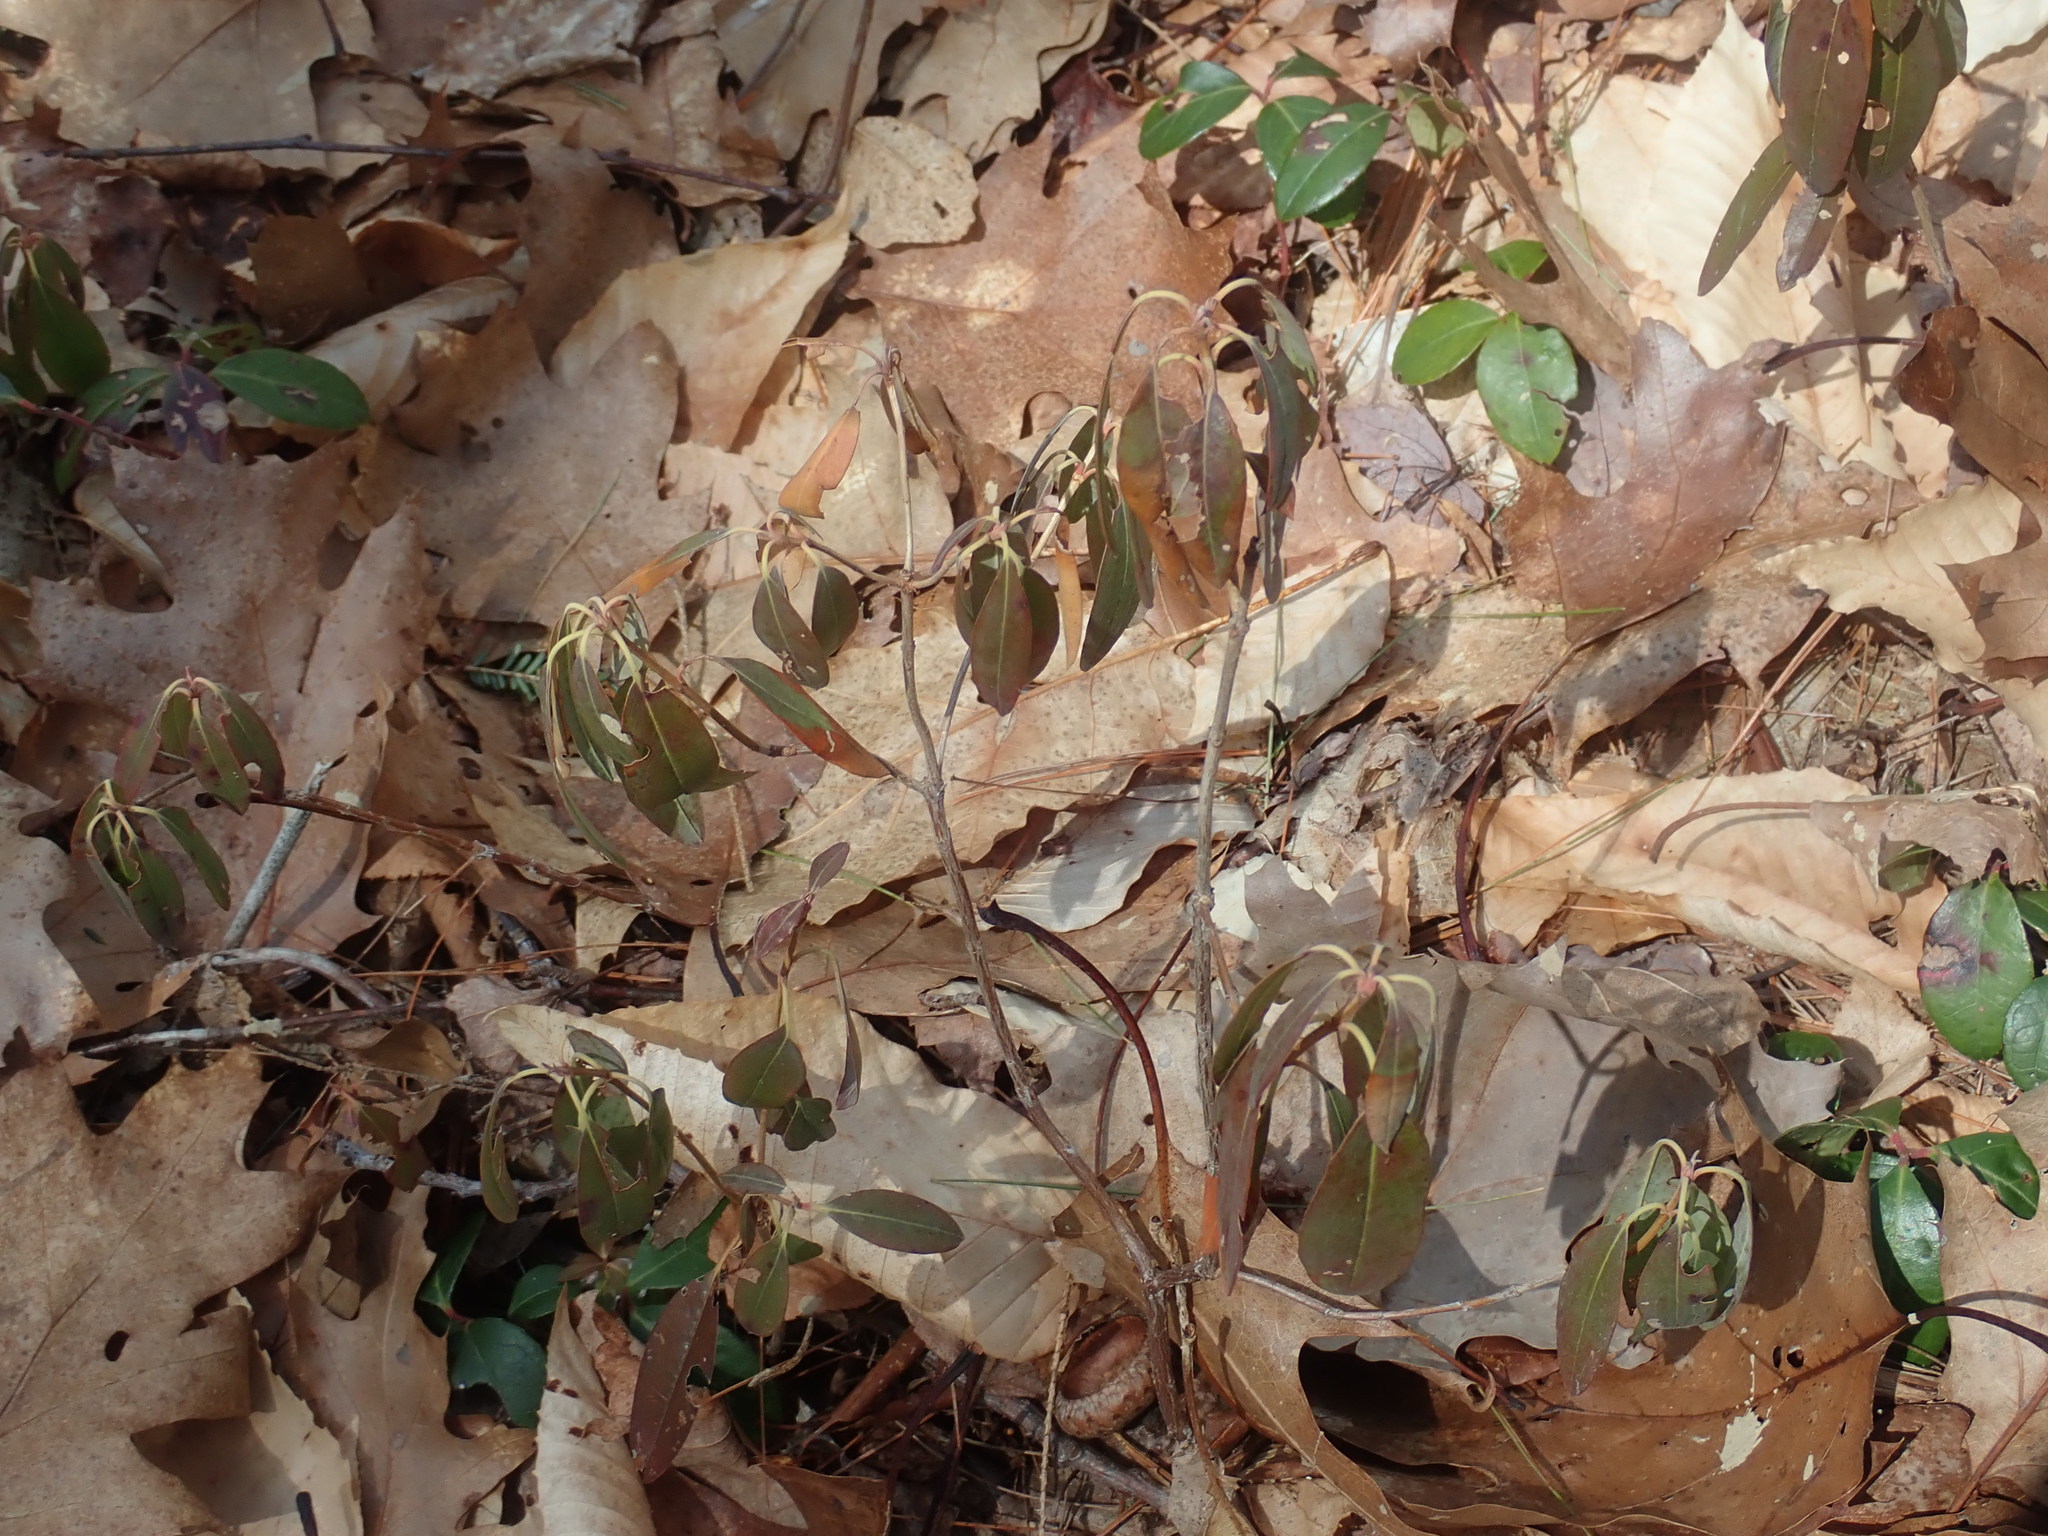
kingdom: Plantae
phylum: Tracheophyta
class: Magnoliopsida
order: Ericales
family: Ericaceae
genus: Kalmia
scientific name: Kalmia angustifolia
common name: Sheep-laurel
